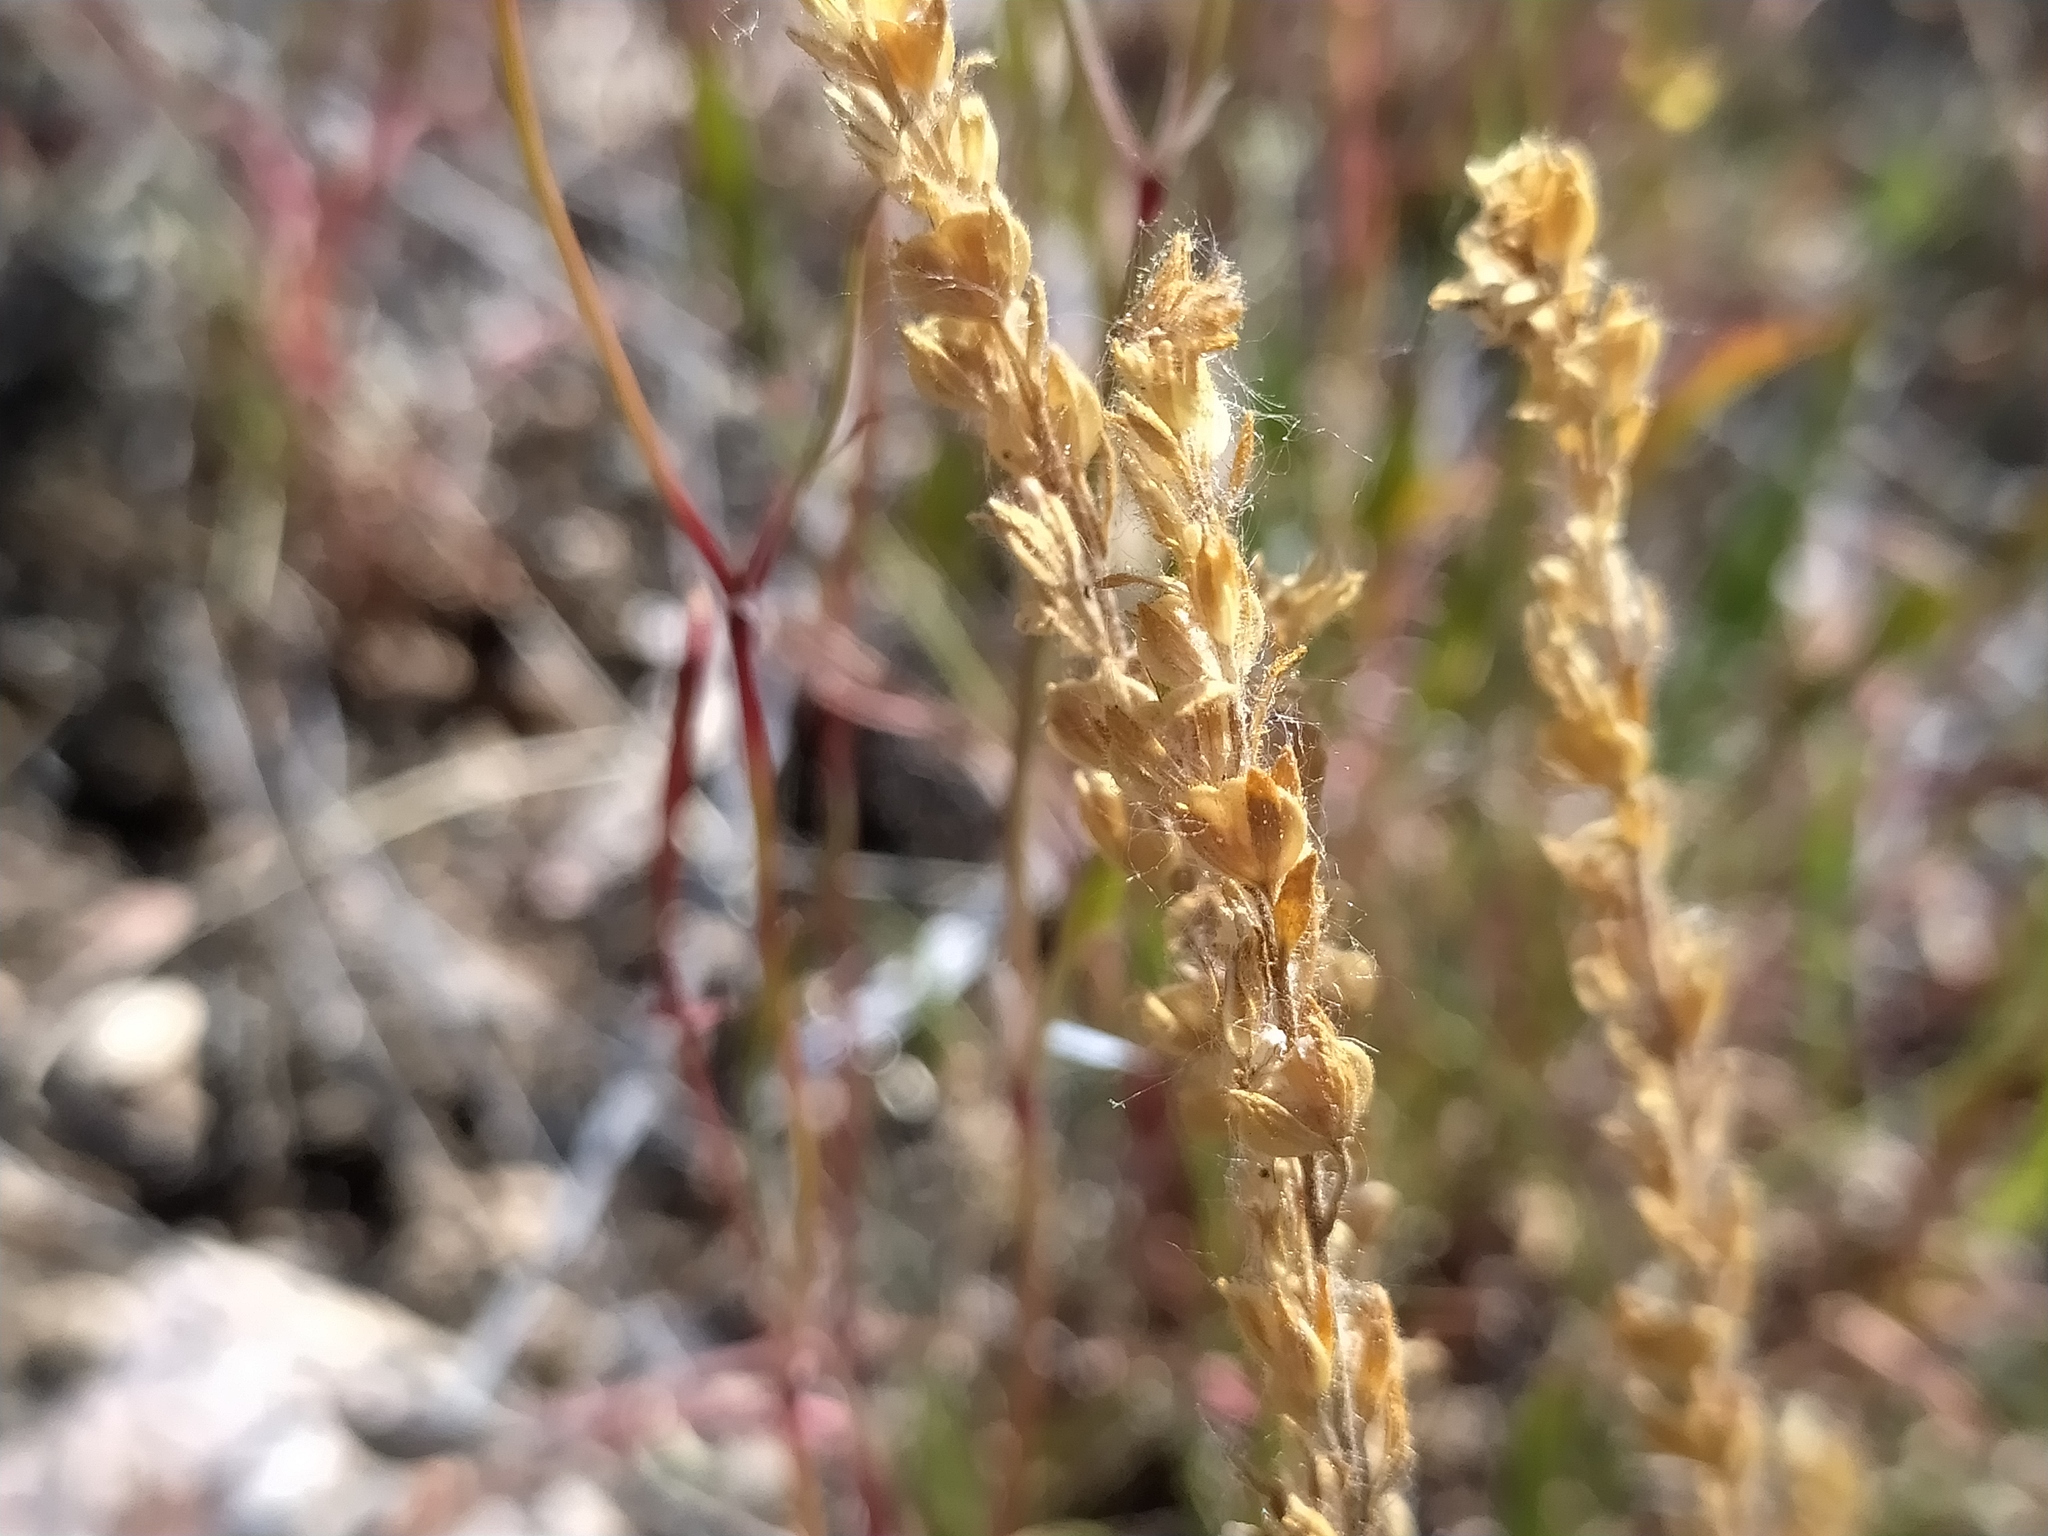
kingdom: Plantae
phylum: Tracheophyta
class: Magnoliopsida
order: Lamiales
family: Plantaginaceae
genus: Veronica
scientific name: Veronica dillenii
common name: Dillenius' speedwell
